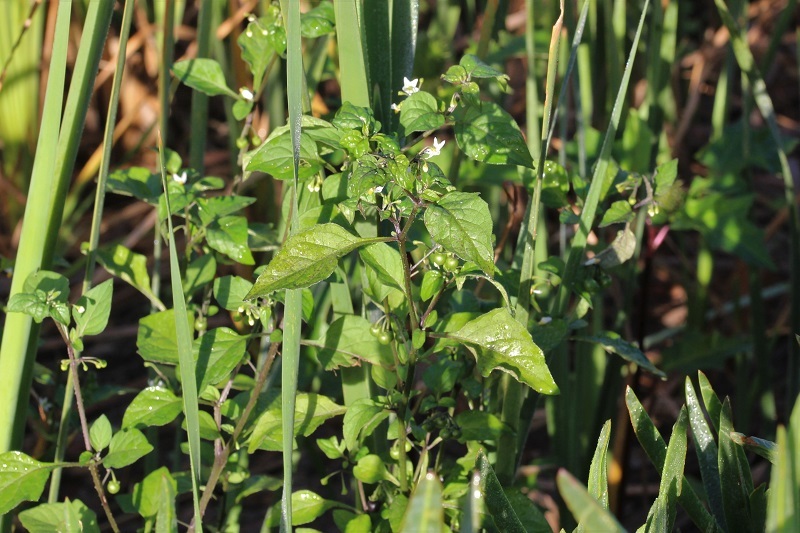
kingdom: Plantae
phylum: Tracheophyta
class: Magnoliopsida
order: Solanales
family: Solanaceae
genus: Solanum
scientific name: Solanum nigrum
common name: Black nightshade
